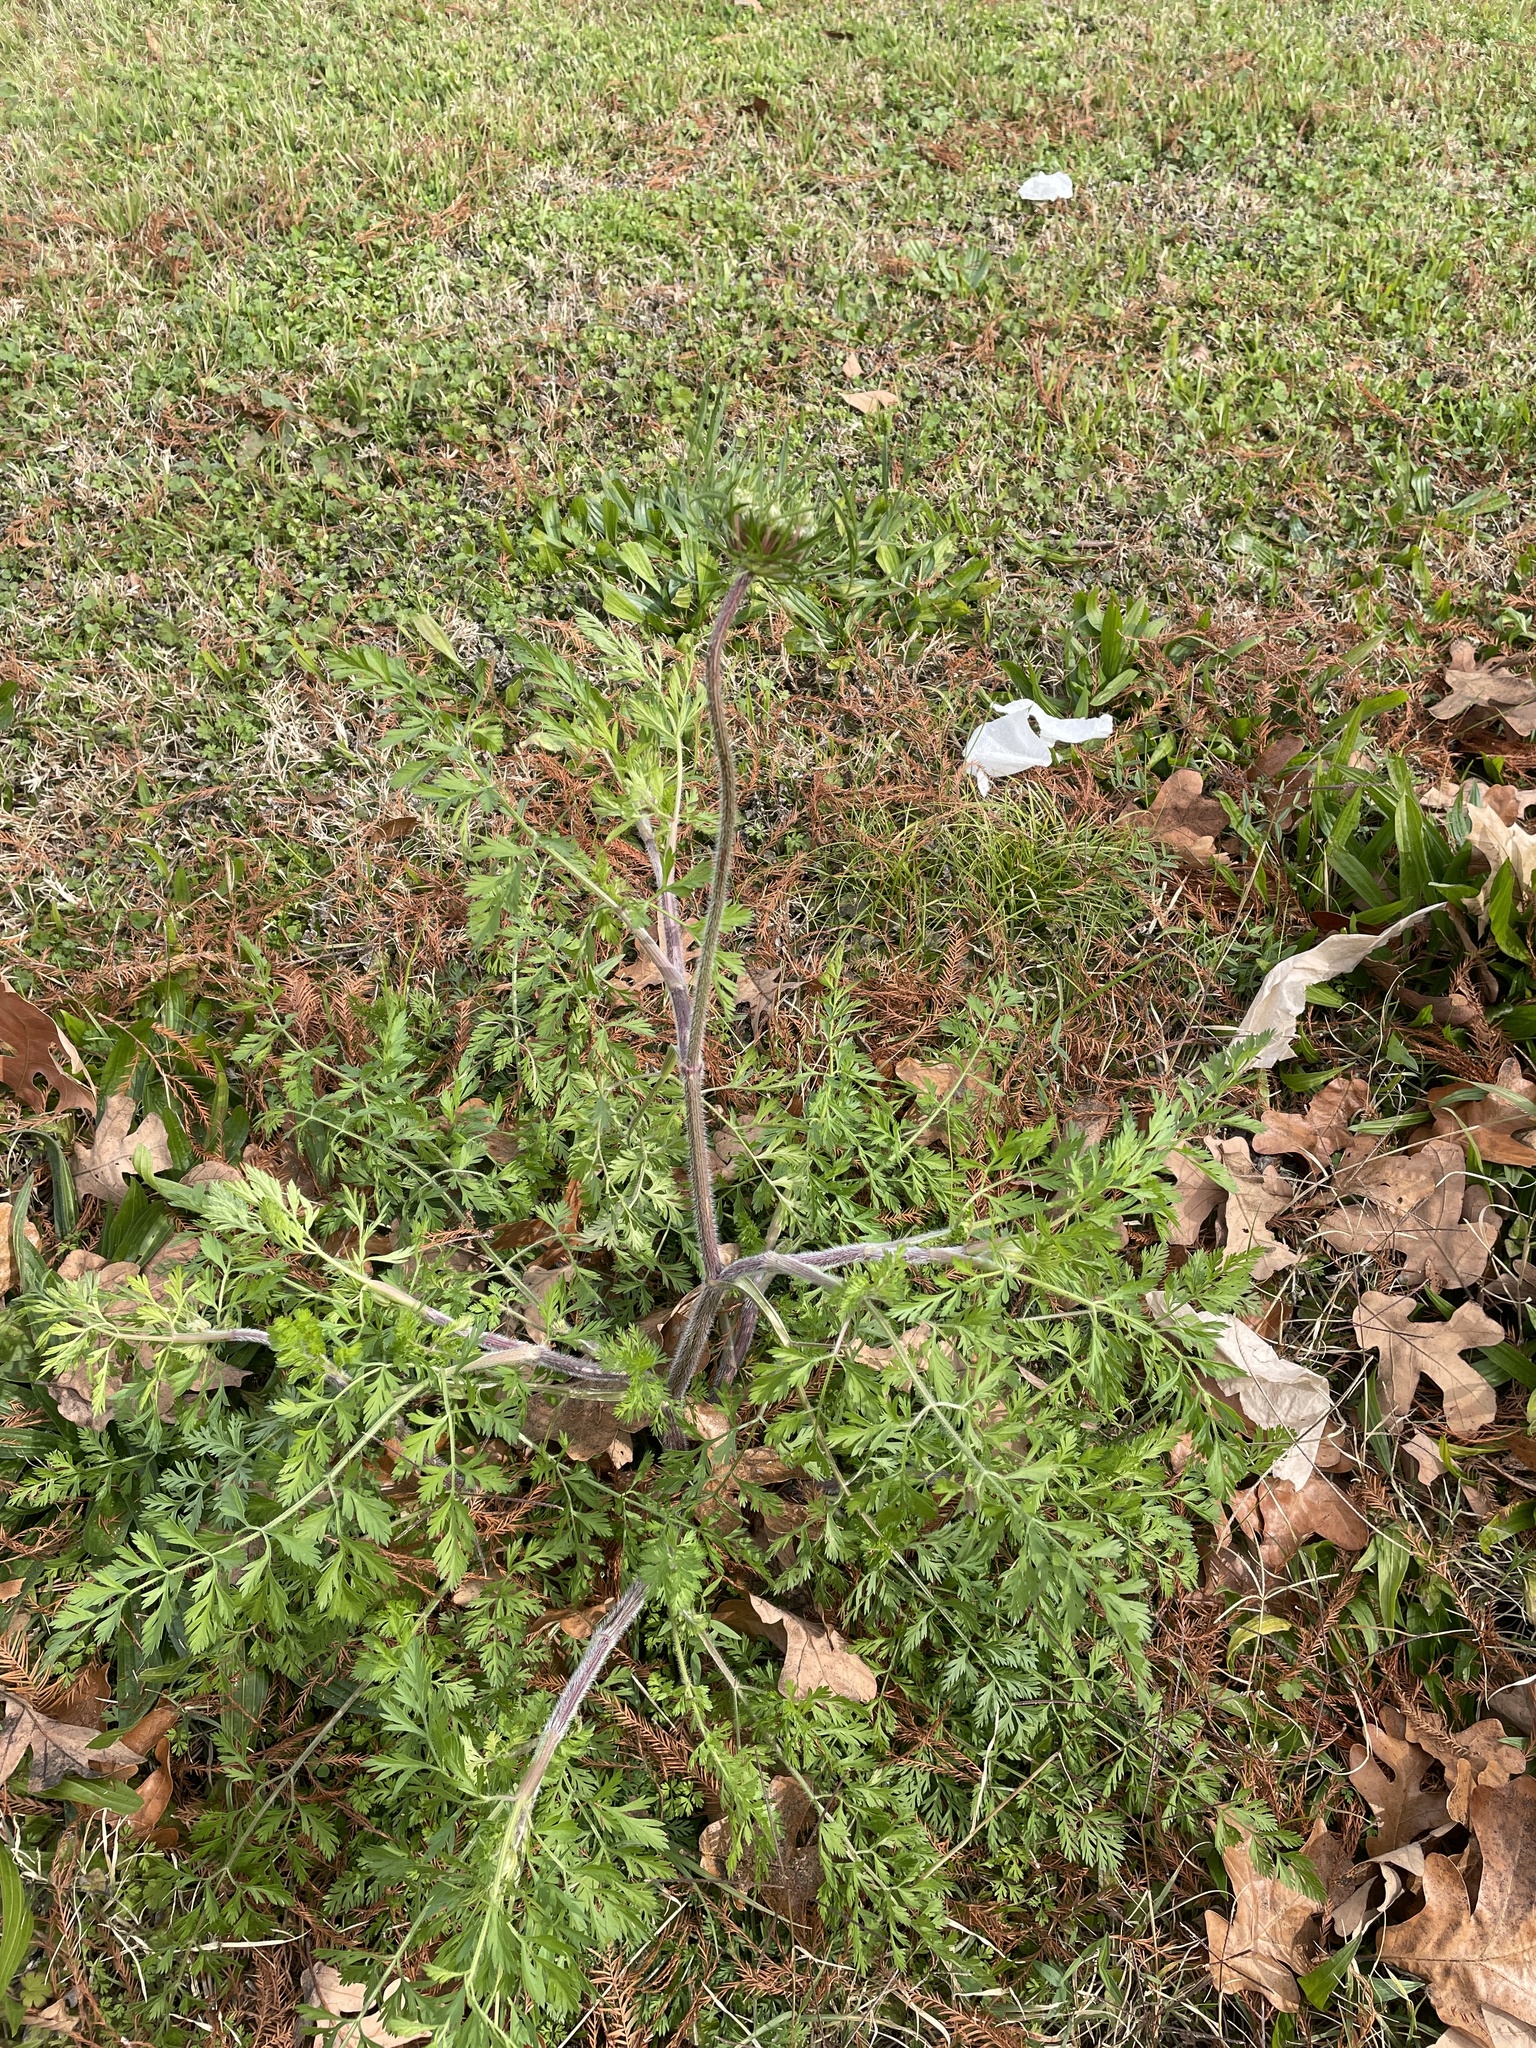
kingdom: Plantae
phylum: Tracheophyta
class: Magnoliopsida
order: Apiales
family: Apiaceae
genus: Daucus
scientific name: Daucus carota
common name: Wild carrot
